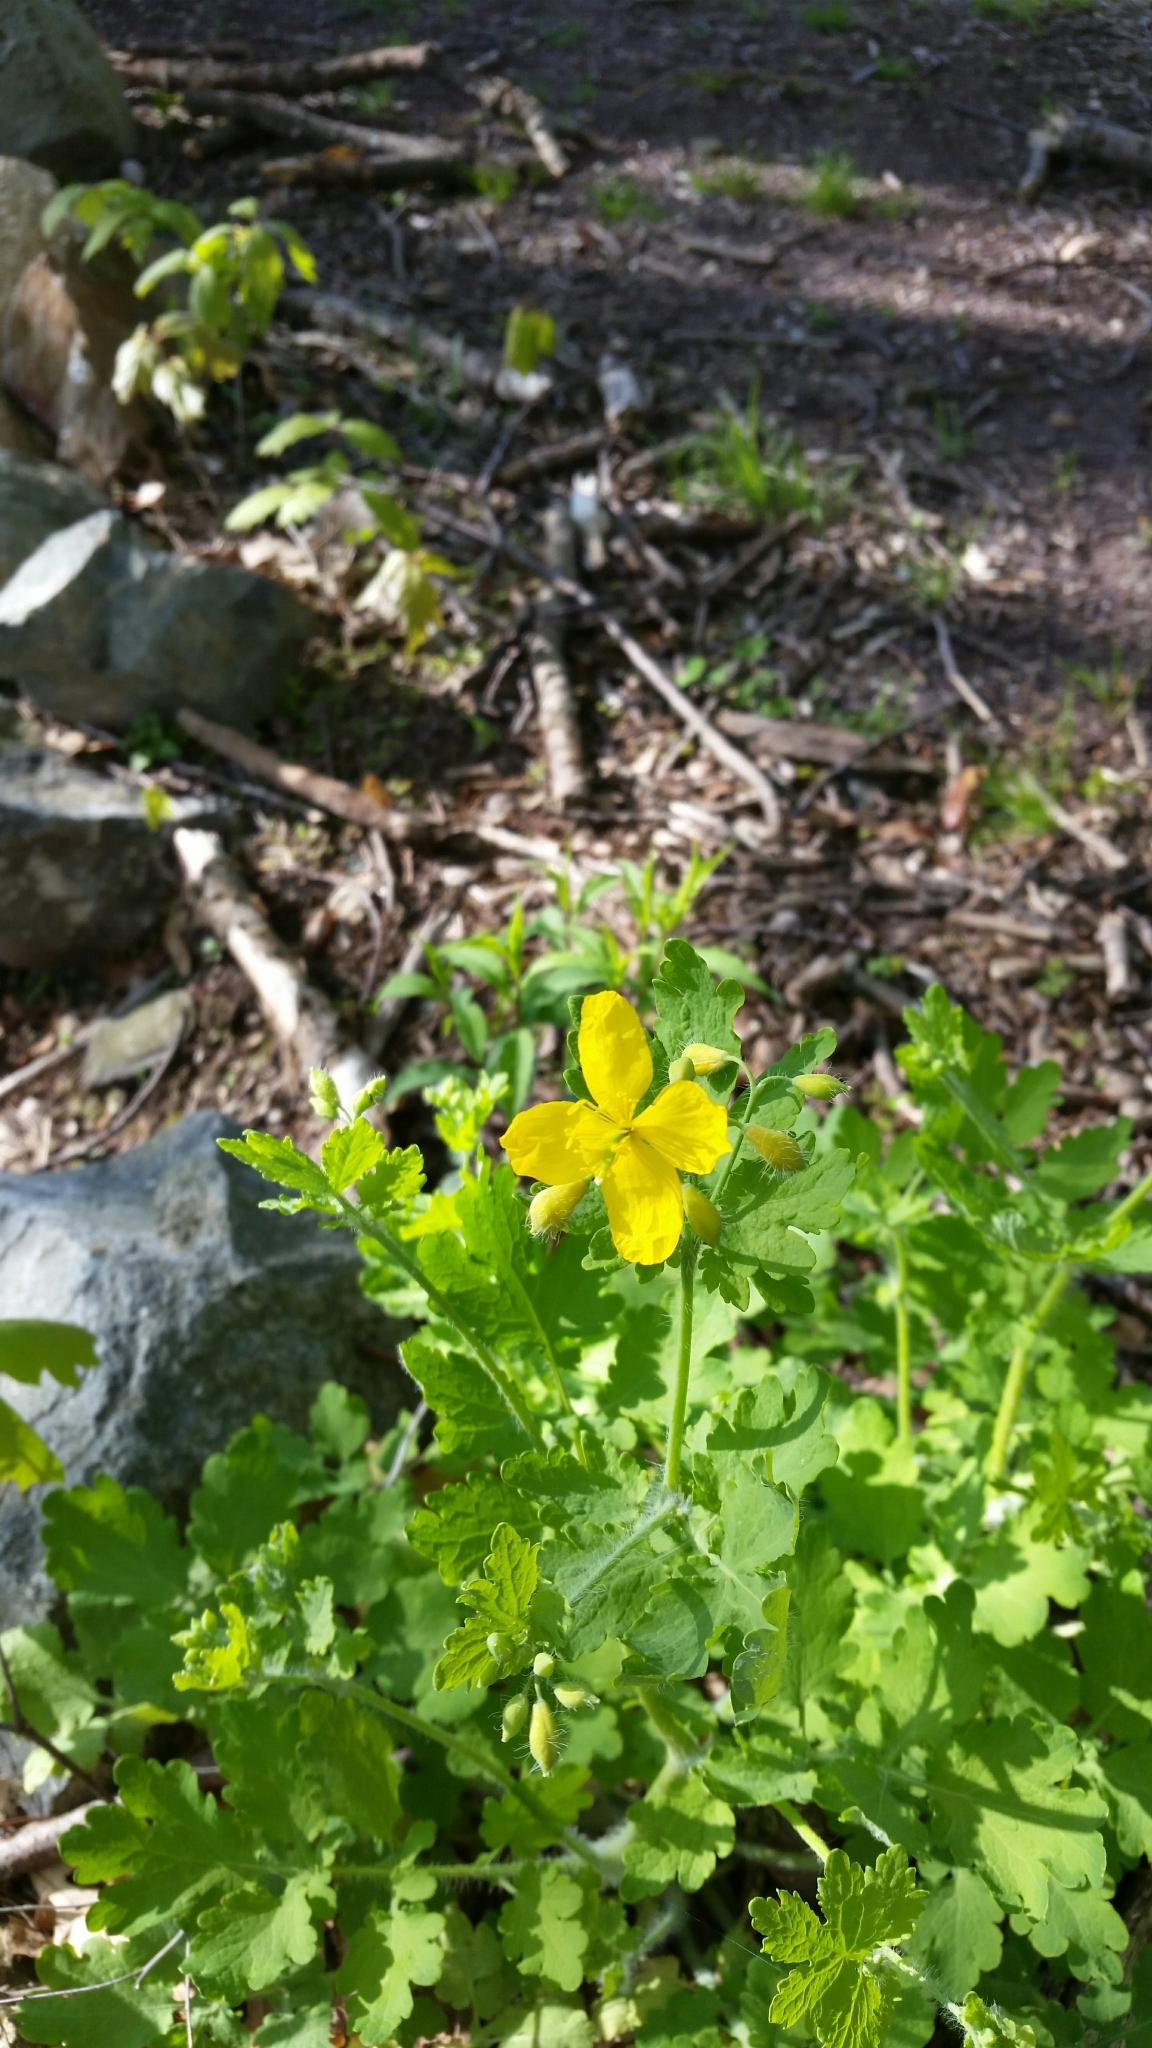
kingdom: Plantae
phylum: Tracheophyta
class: Magnoliopsida
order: Ranunculales
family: Papaveraceae
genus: Chelidonium
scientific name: Chelidonium majus
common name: Greater celandine
